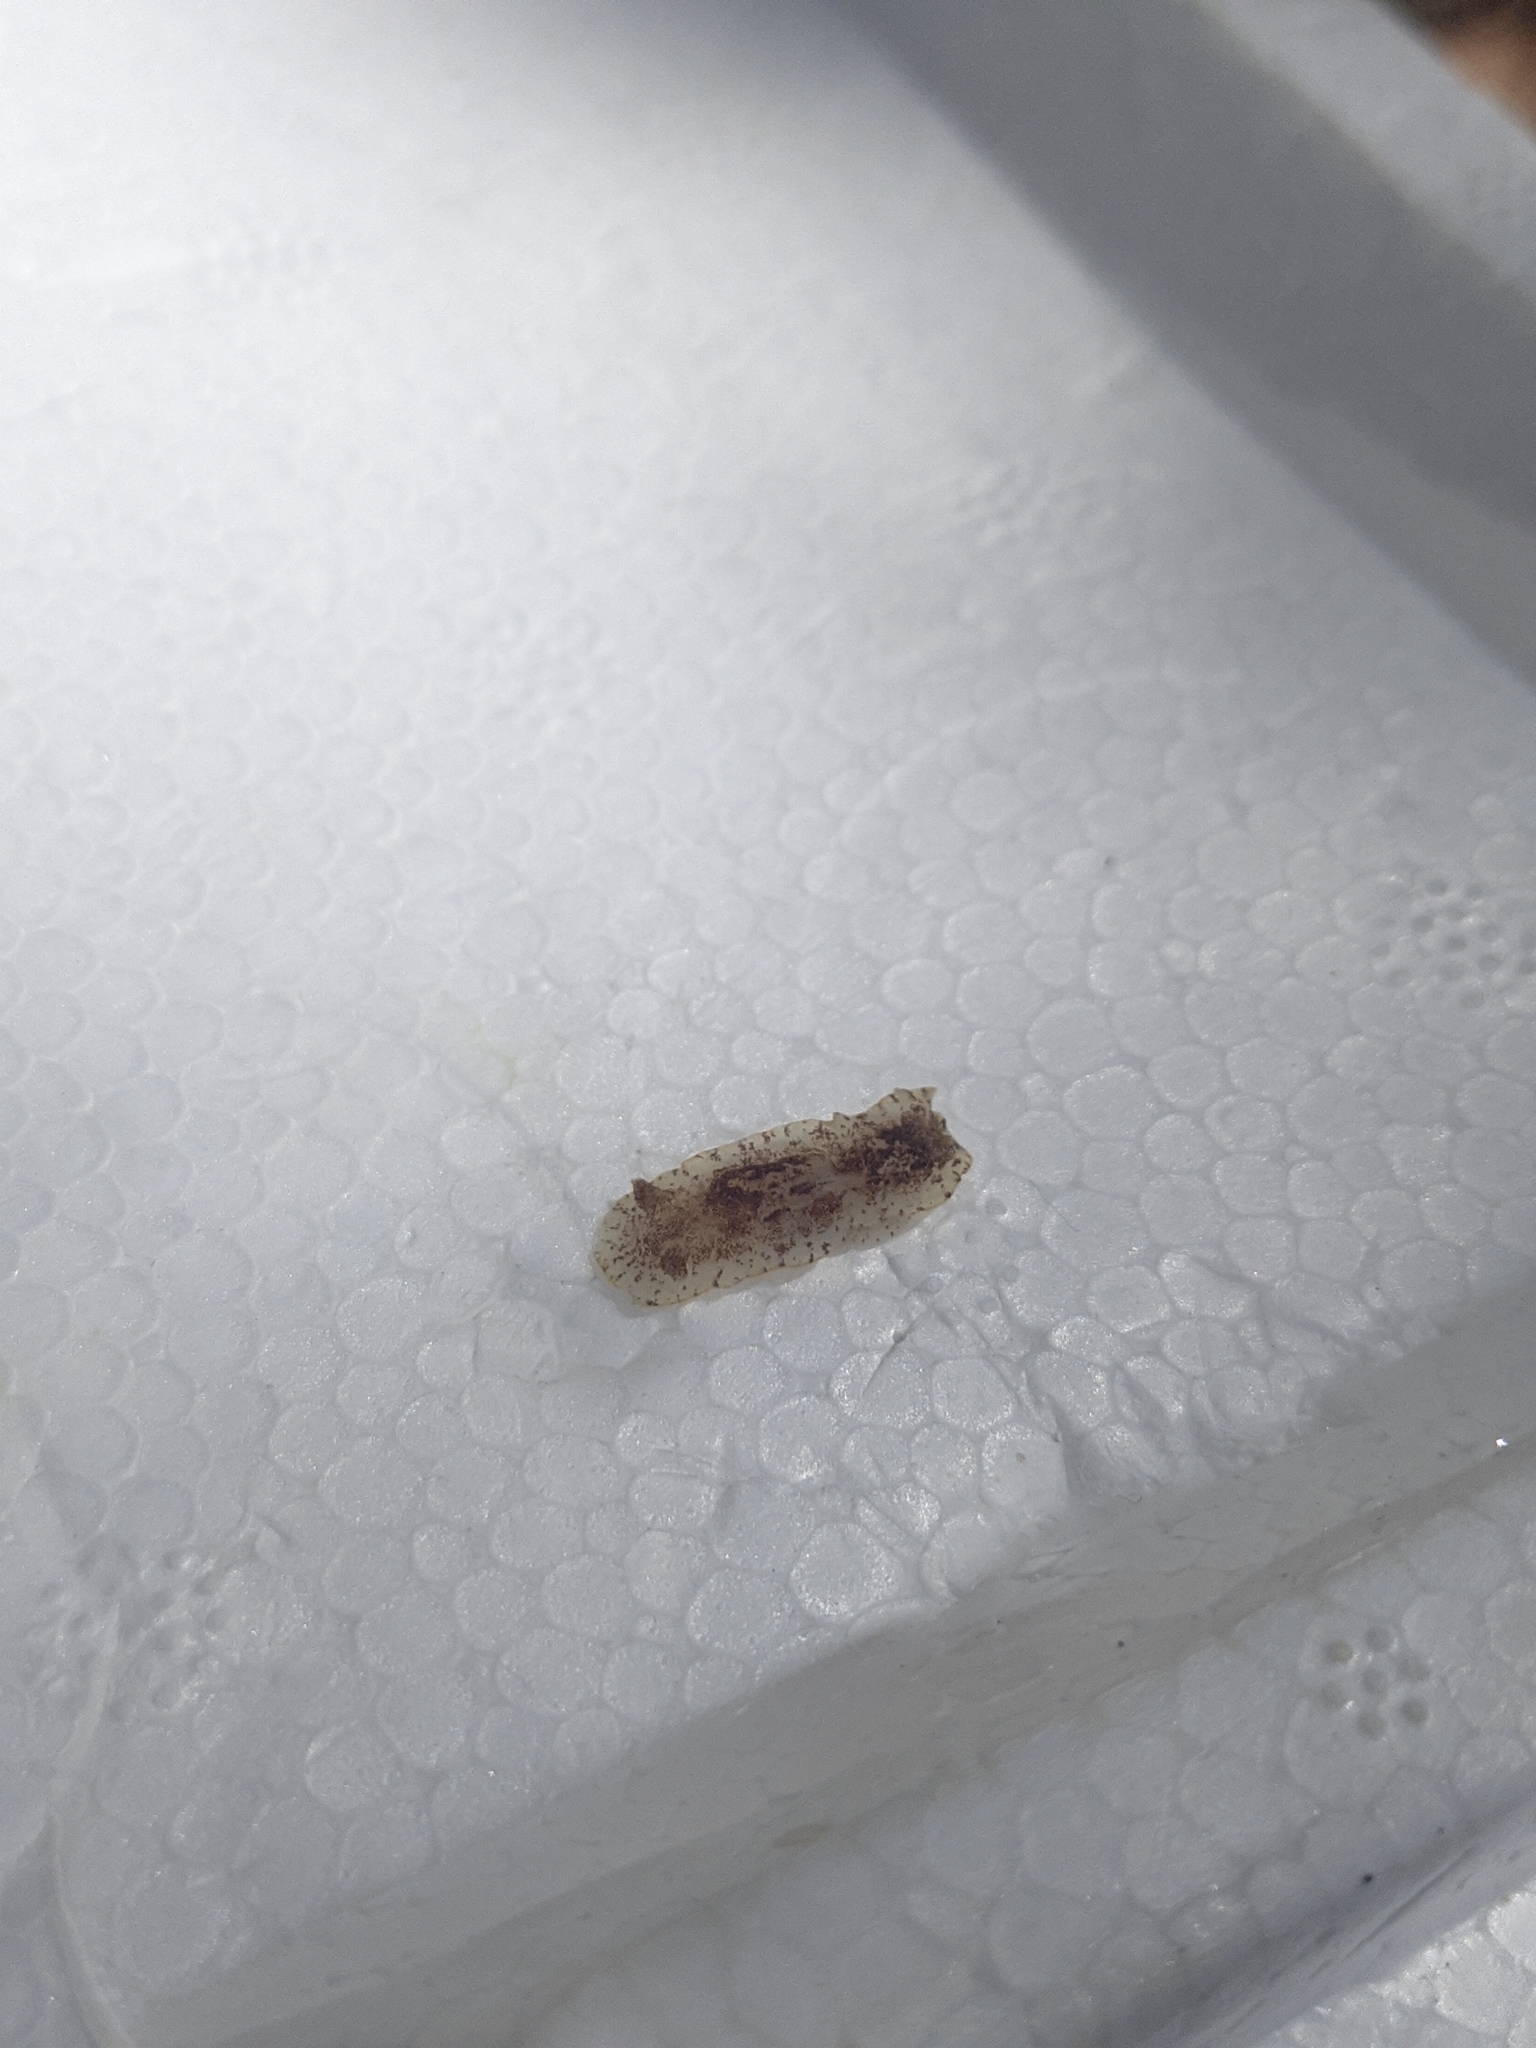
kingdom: Animalia
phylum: Mollusca
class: Gastropoda
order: Nudibranchia
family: Dorididae
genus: Aphelodoris
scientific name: Aphelodoris antillensis
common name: Brown-speckled doris
